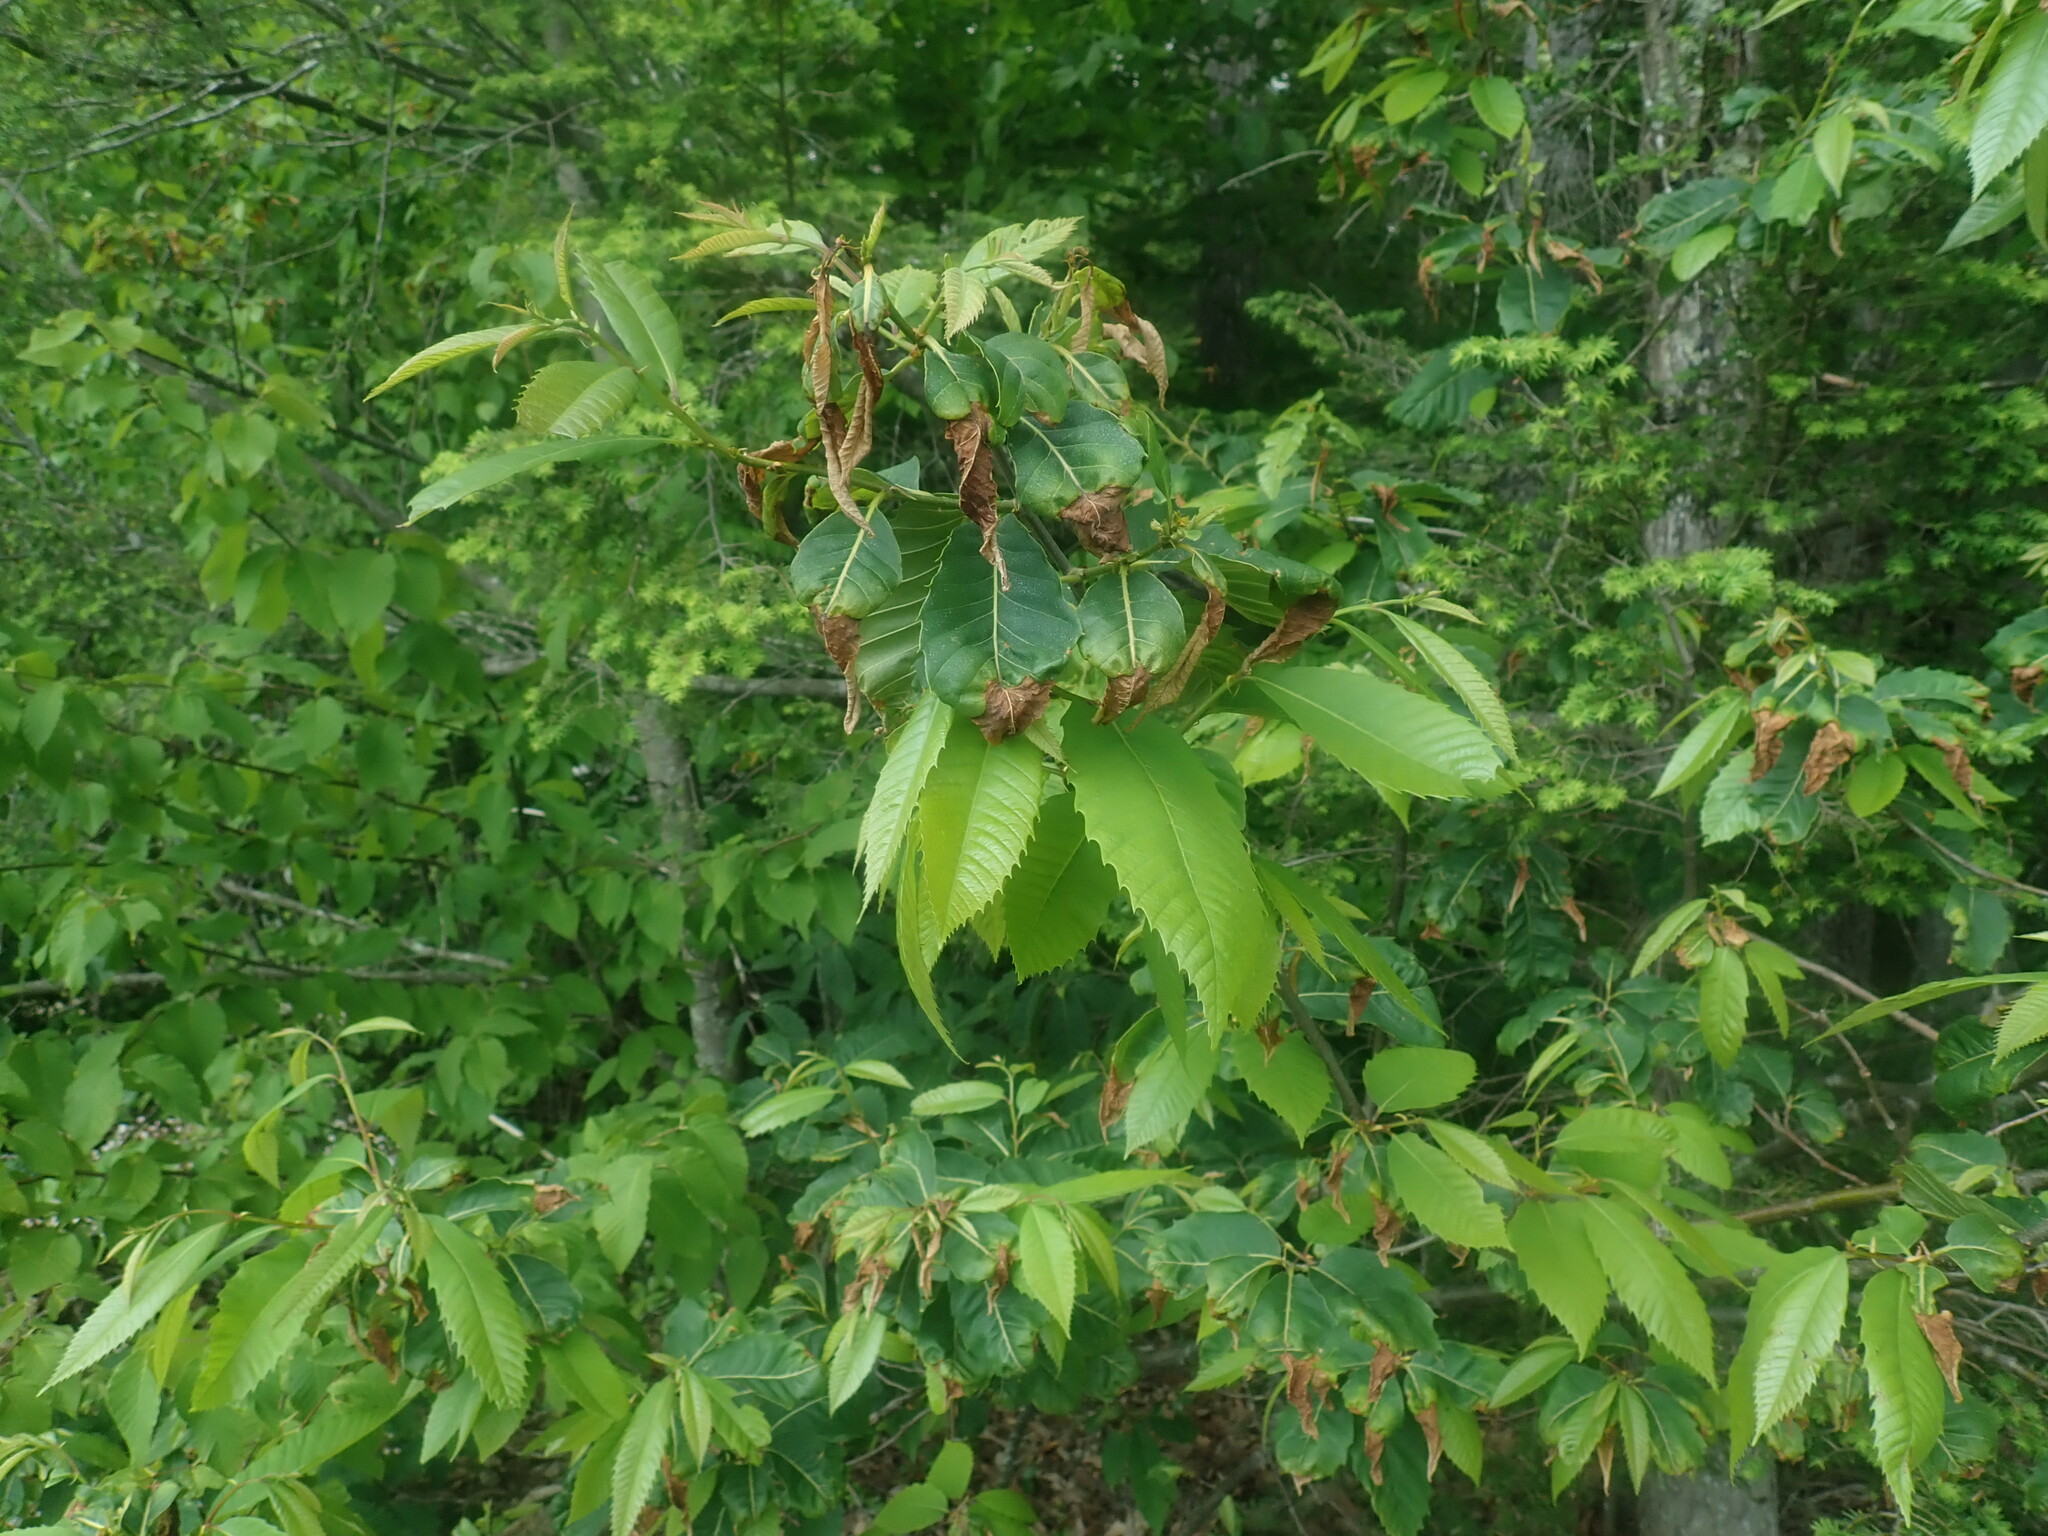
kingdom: Plantae
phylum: Tracheophyta
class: Magnoliopsida
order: Fagales
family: Fagaceae
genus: Castanea
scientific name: Castanea dentata
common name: American chestnut
